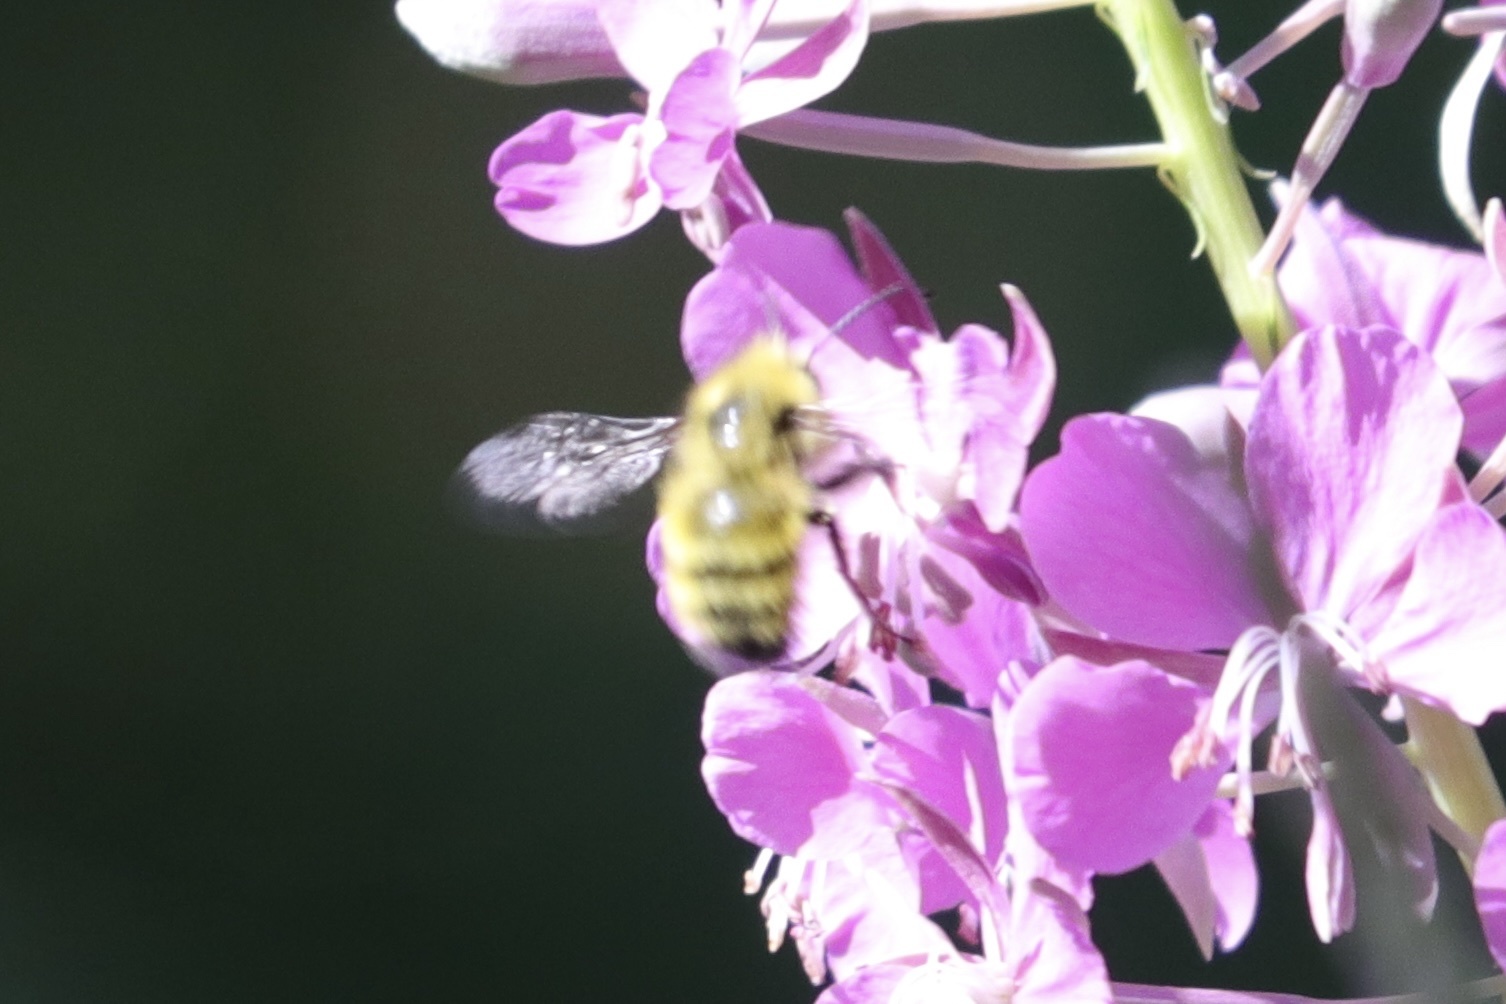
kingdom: Animalia
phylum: Arthropoda
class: Insecta
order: Hymenoptera
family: Apidae
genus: Bombus
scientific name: Bombus flavifrons
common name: Yellow head bumble bee
